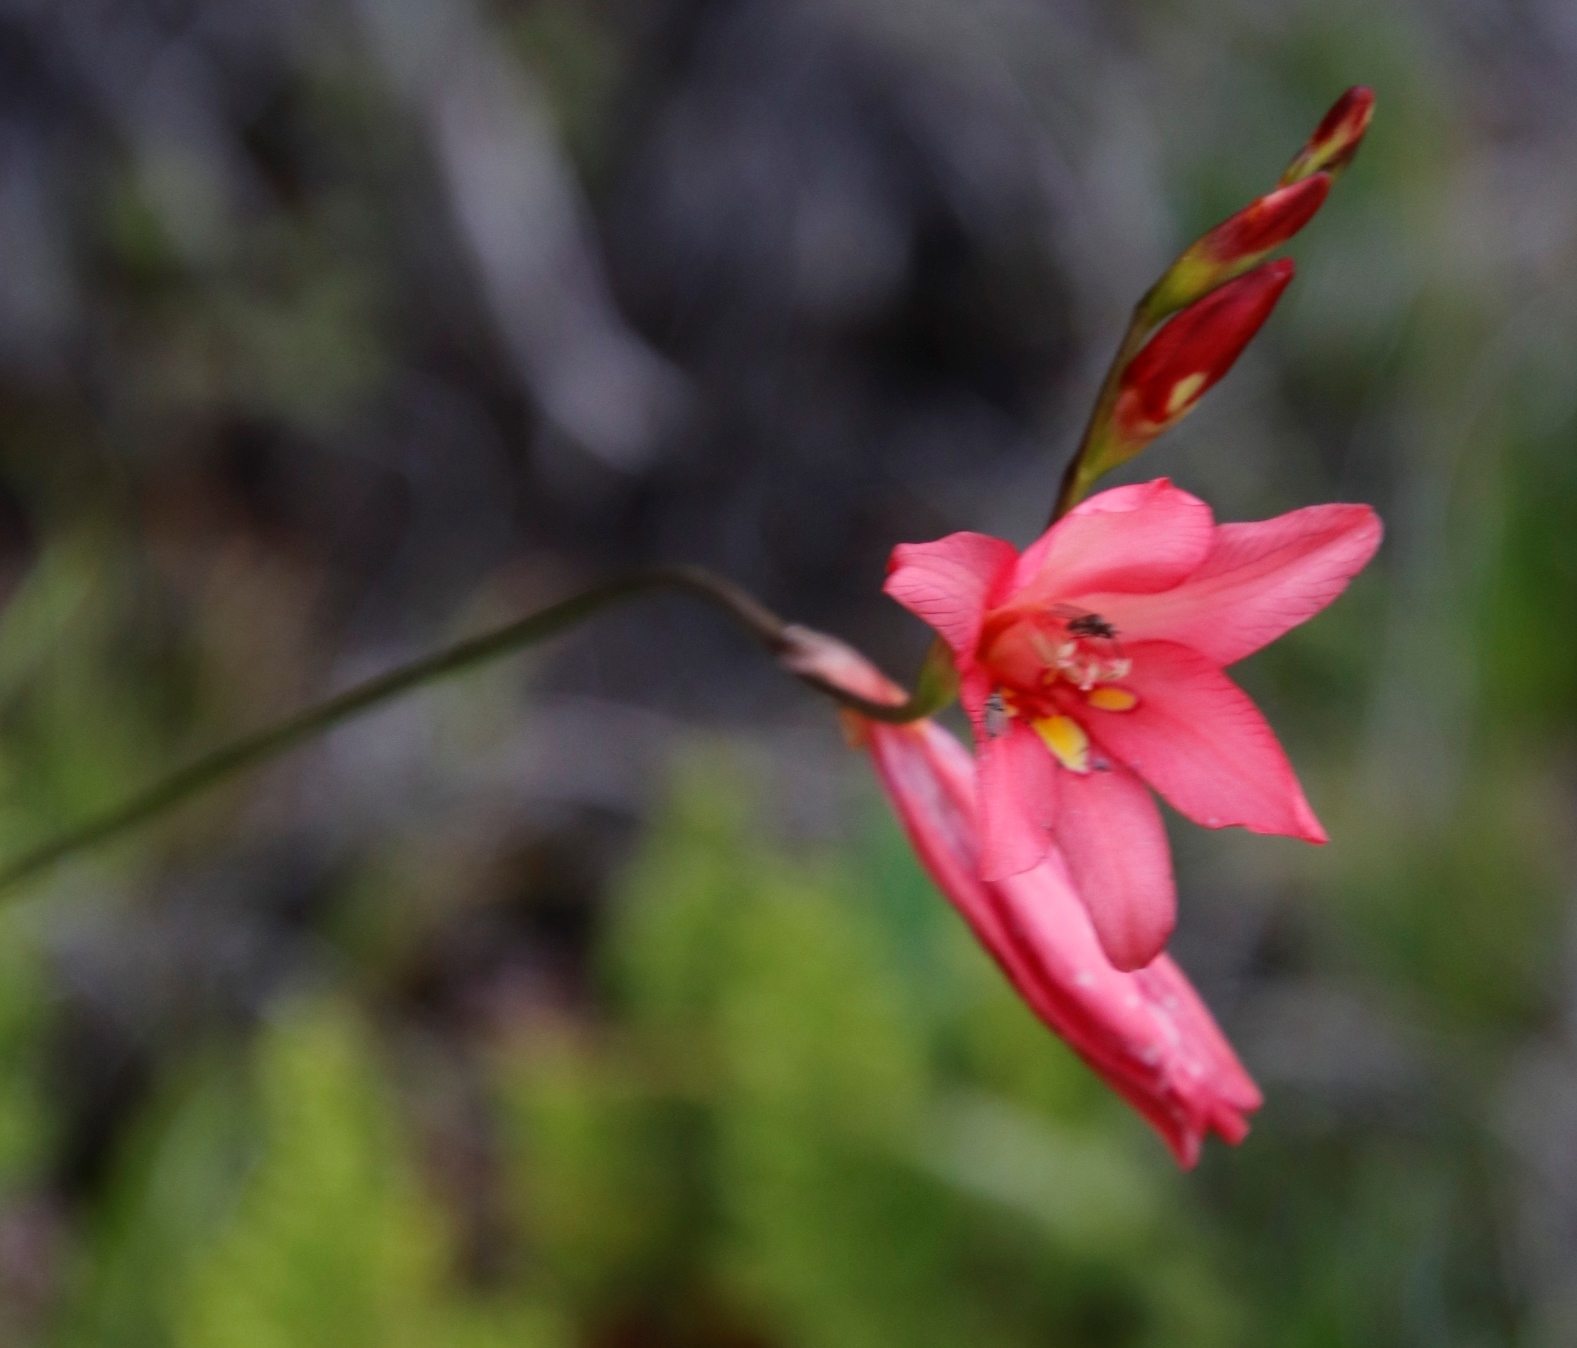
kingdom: Plantae
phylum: Tracheophyta
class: Liliopsida
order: Asparagales
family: Iridaceae
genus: Tritonia
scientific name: Tritonia drakensbergensis
